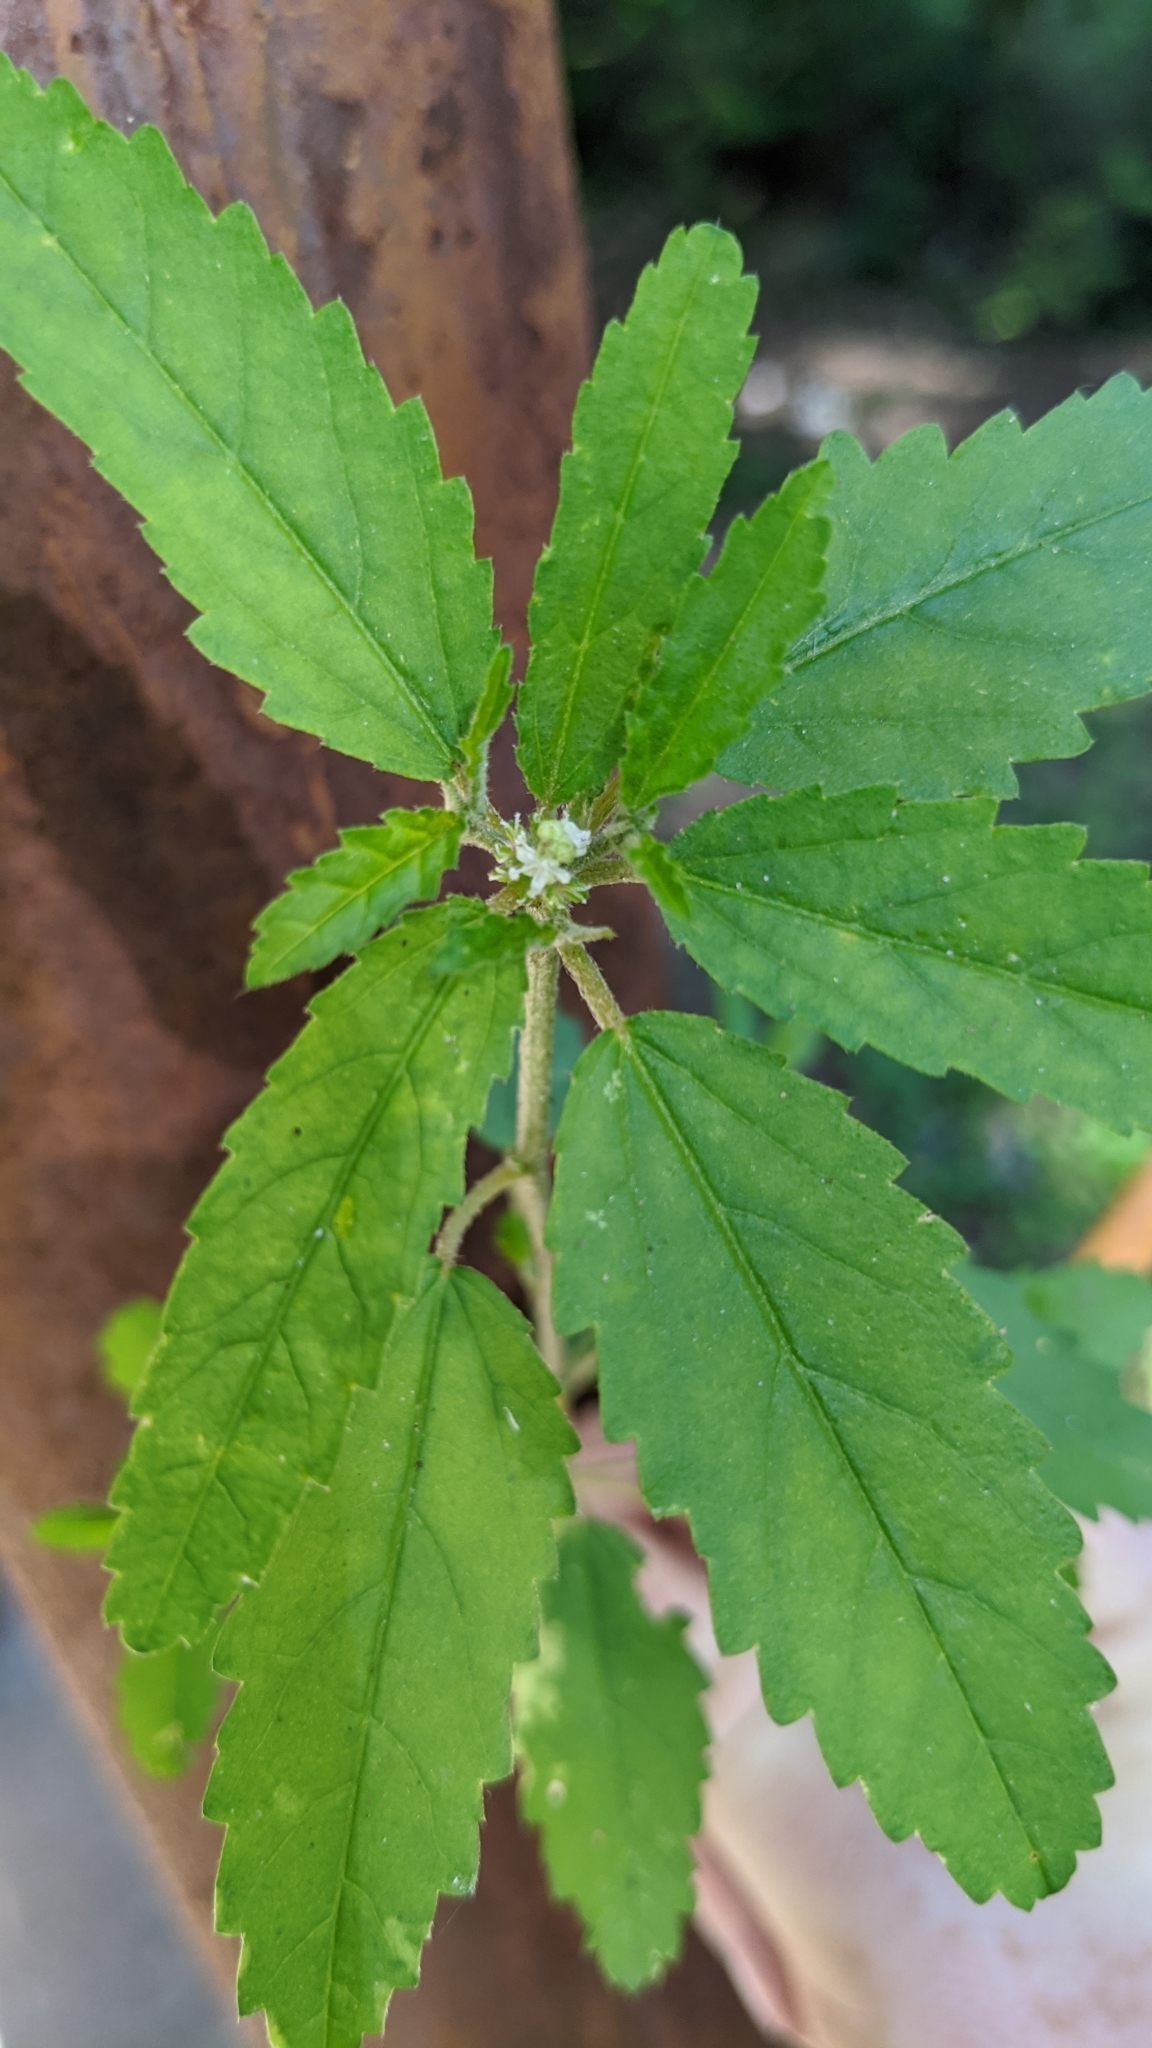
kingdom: Plantae
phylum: Tracheophyta
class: Magnoliopsida
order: Malpighiales
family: Euphorbiaceae
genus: Croton
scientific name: Croton glandulosus
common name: Tropic croton
